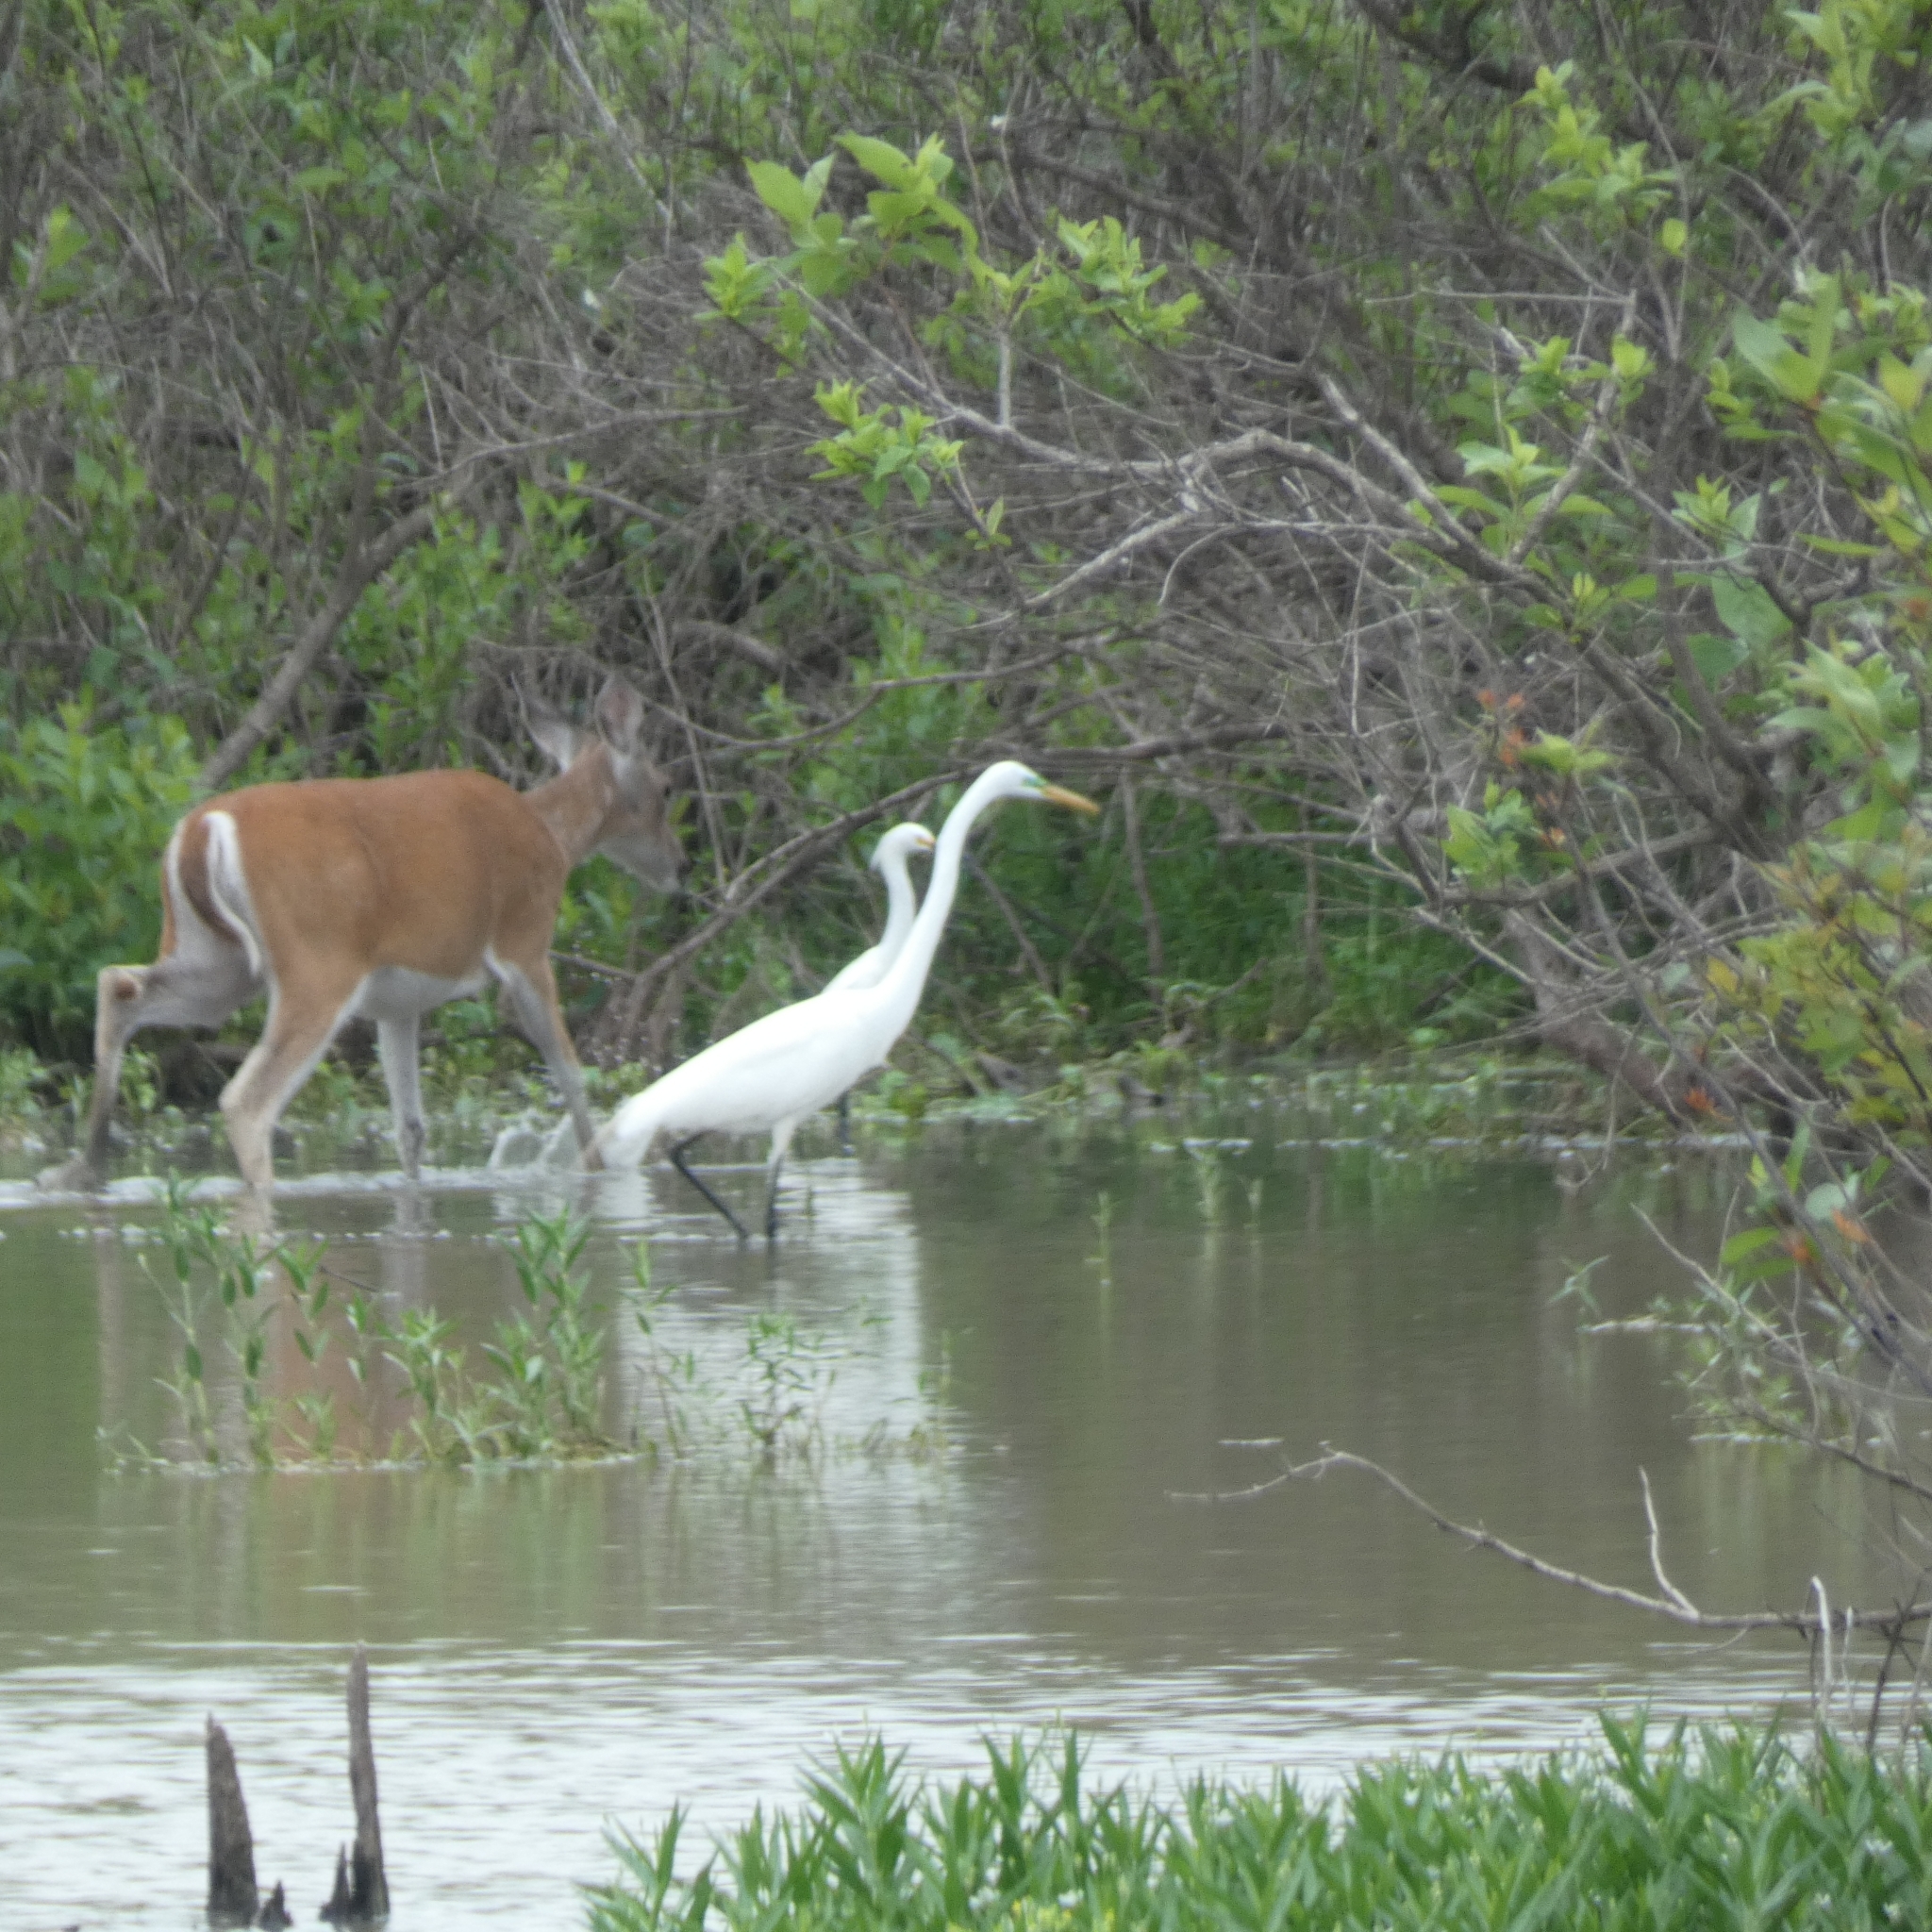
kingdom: Animalia
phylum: Chordata
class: Aves
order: Pelecaniformes
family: Ardeidae
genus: Ardea
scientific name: Ardea alba
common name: Great egret
